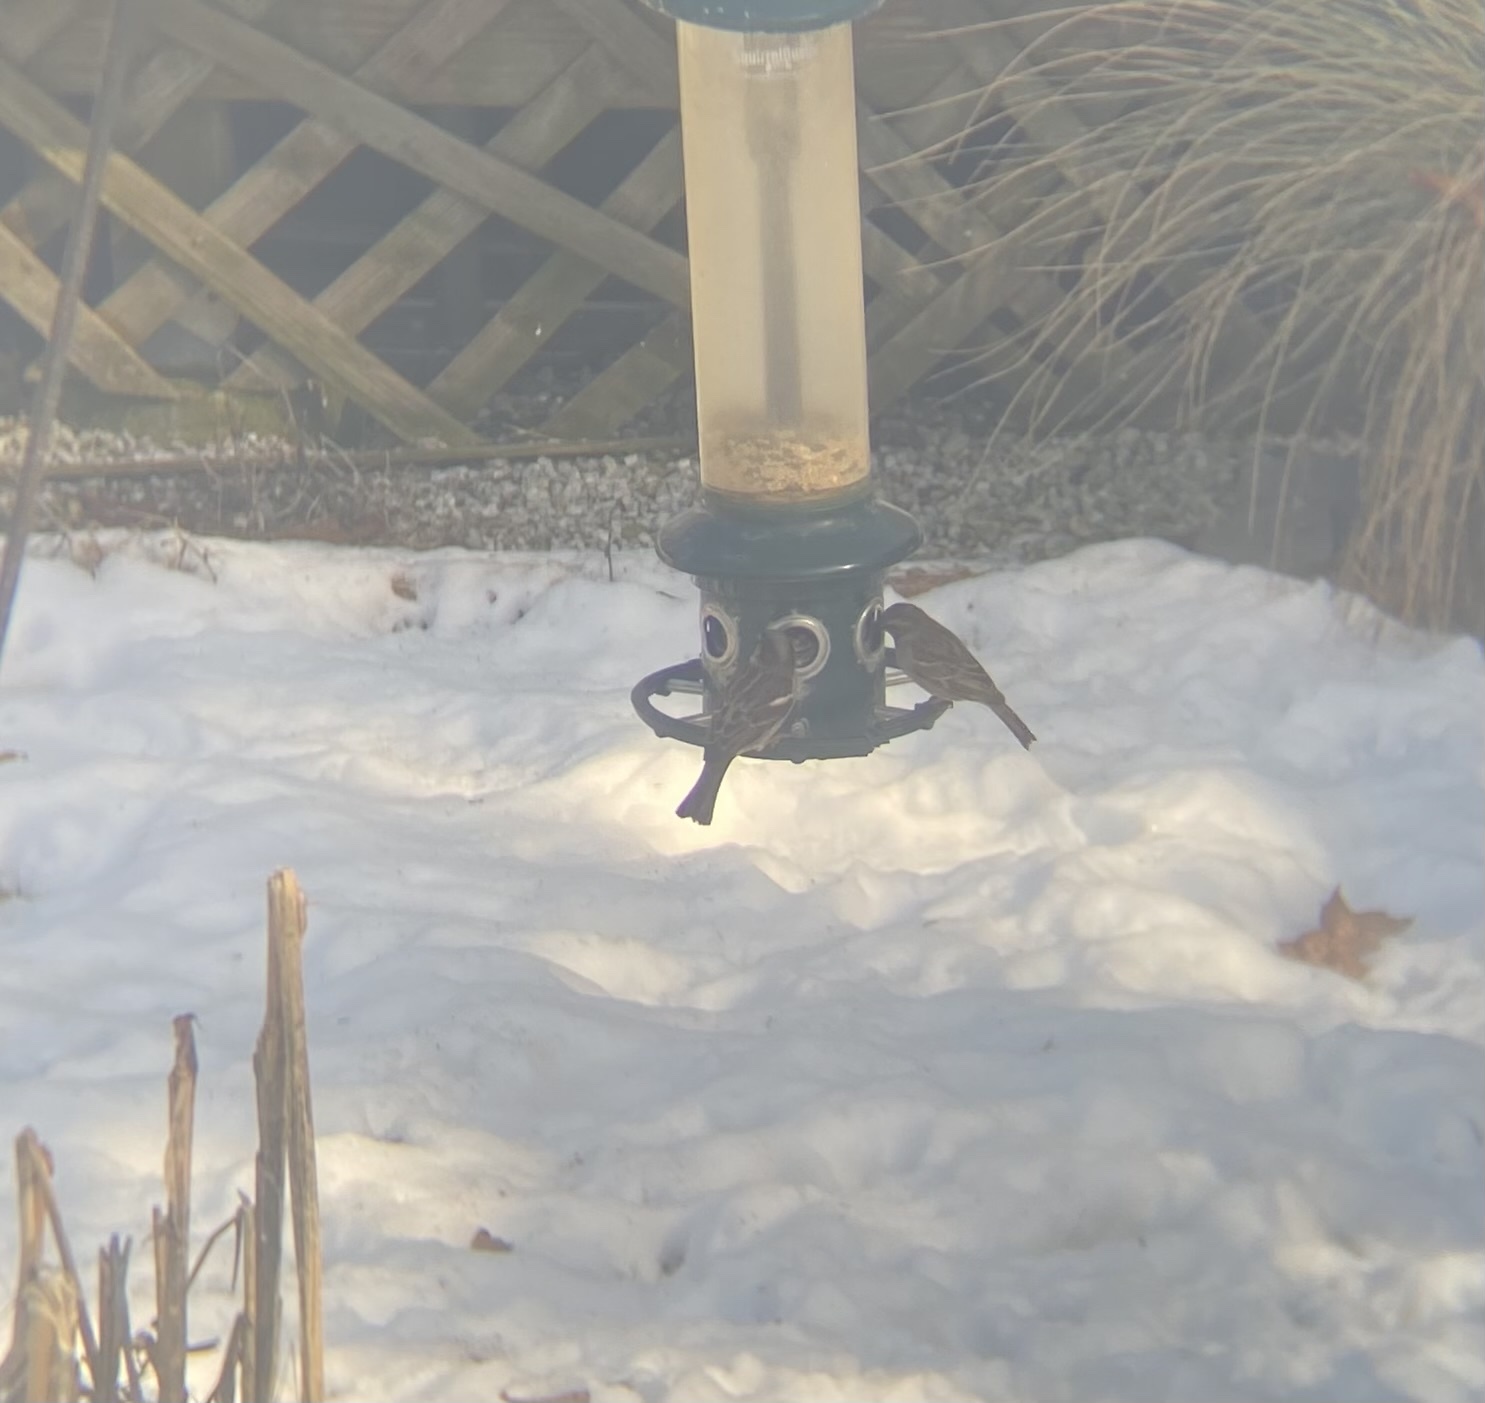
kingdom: Animalia
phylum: Chordata
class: Aves
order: Passeriformes
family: Passeridae
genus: Passer
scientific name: Passer domesticus
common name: House sparrow
